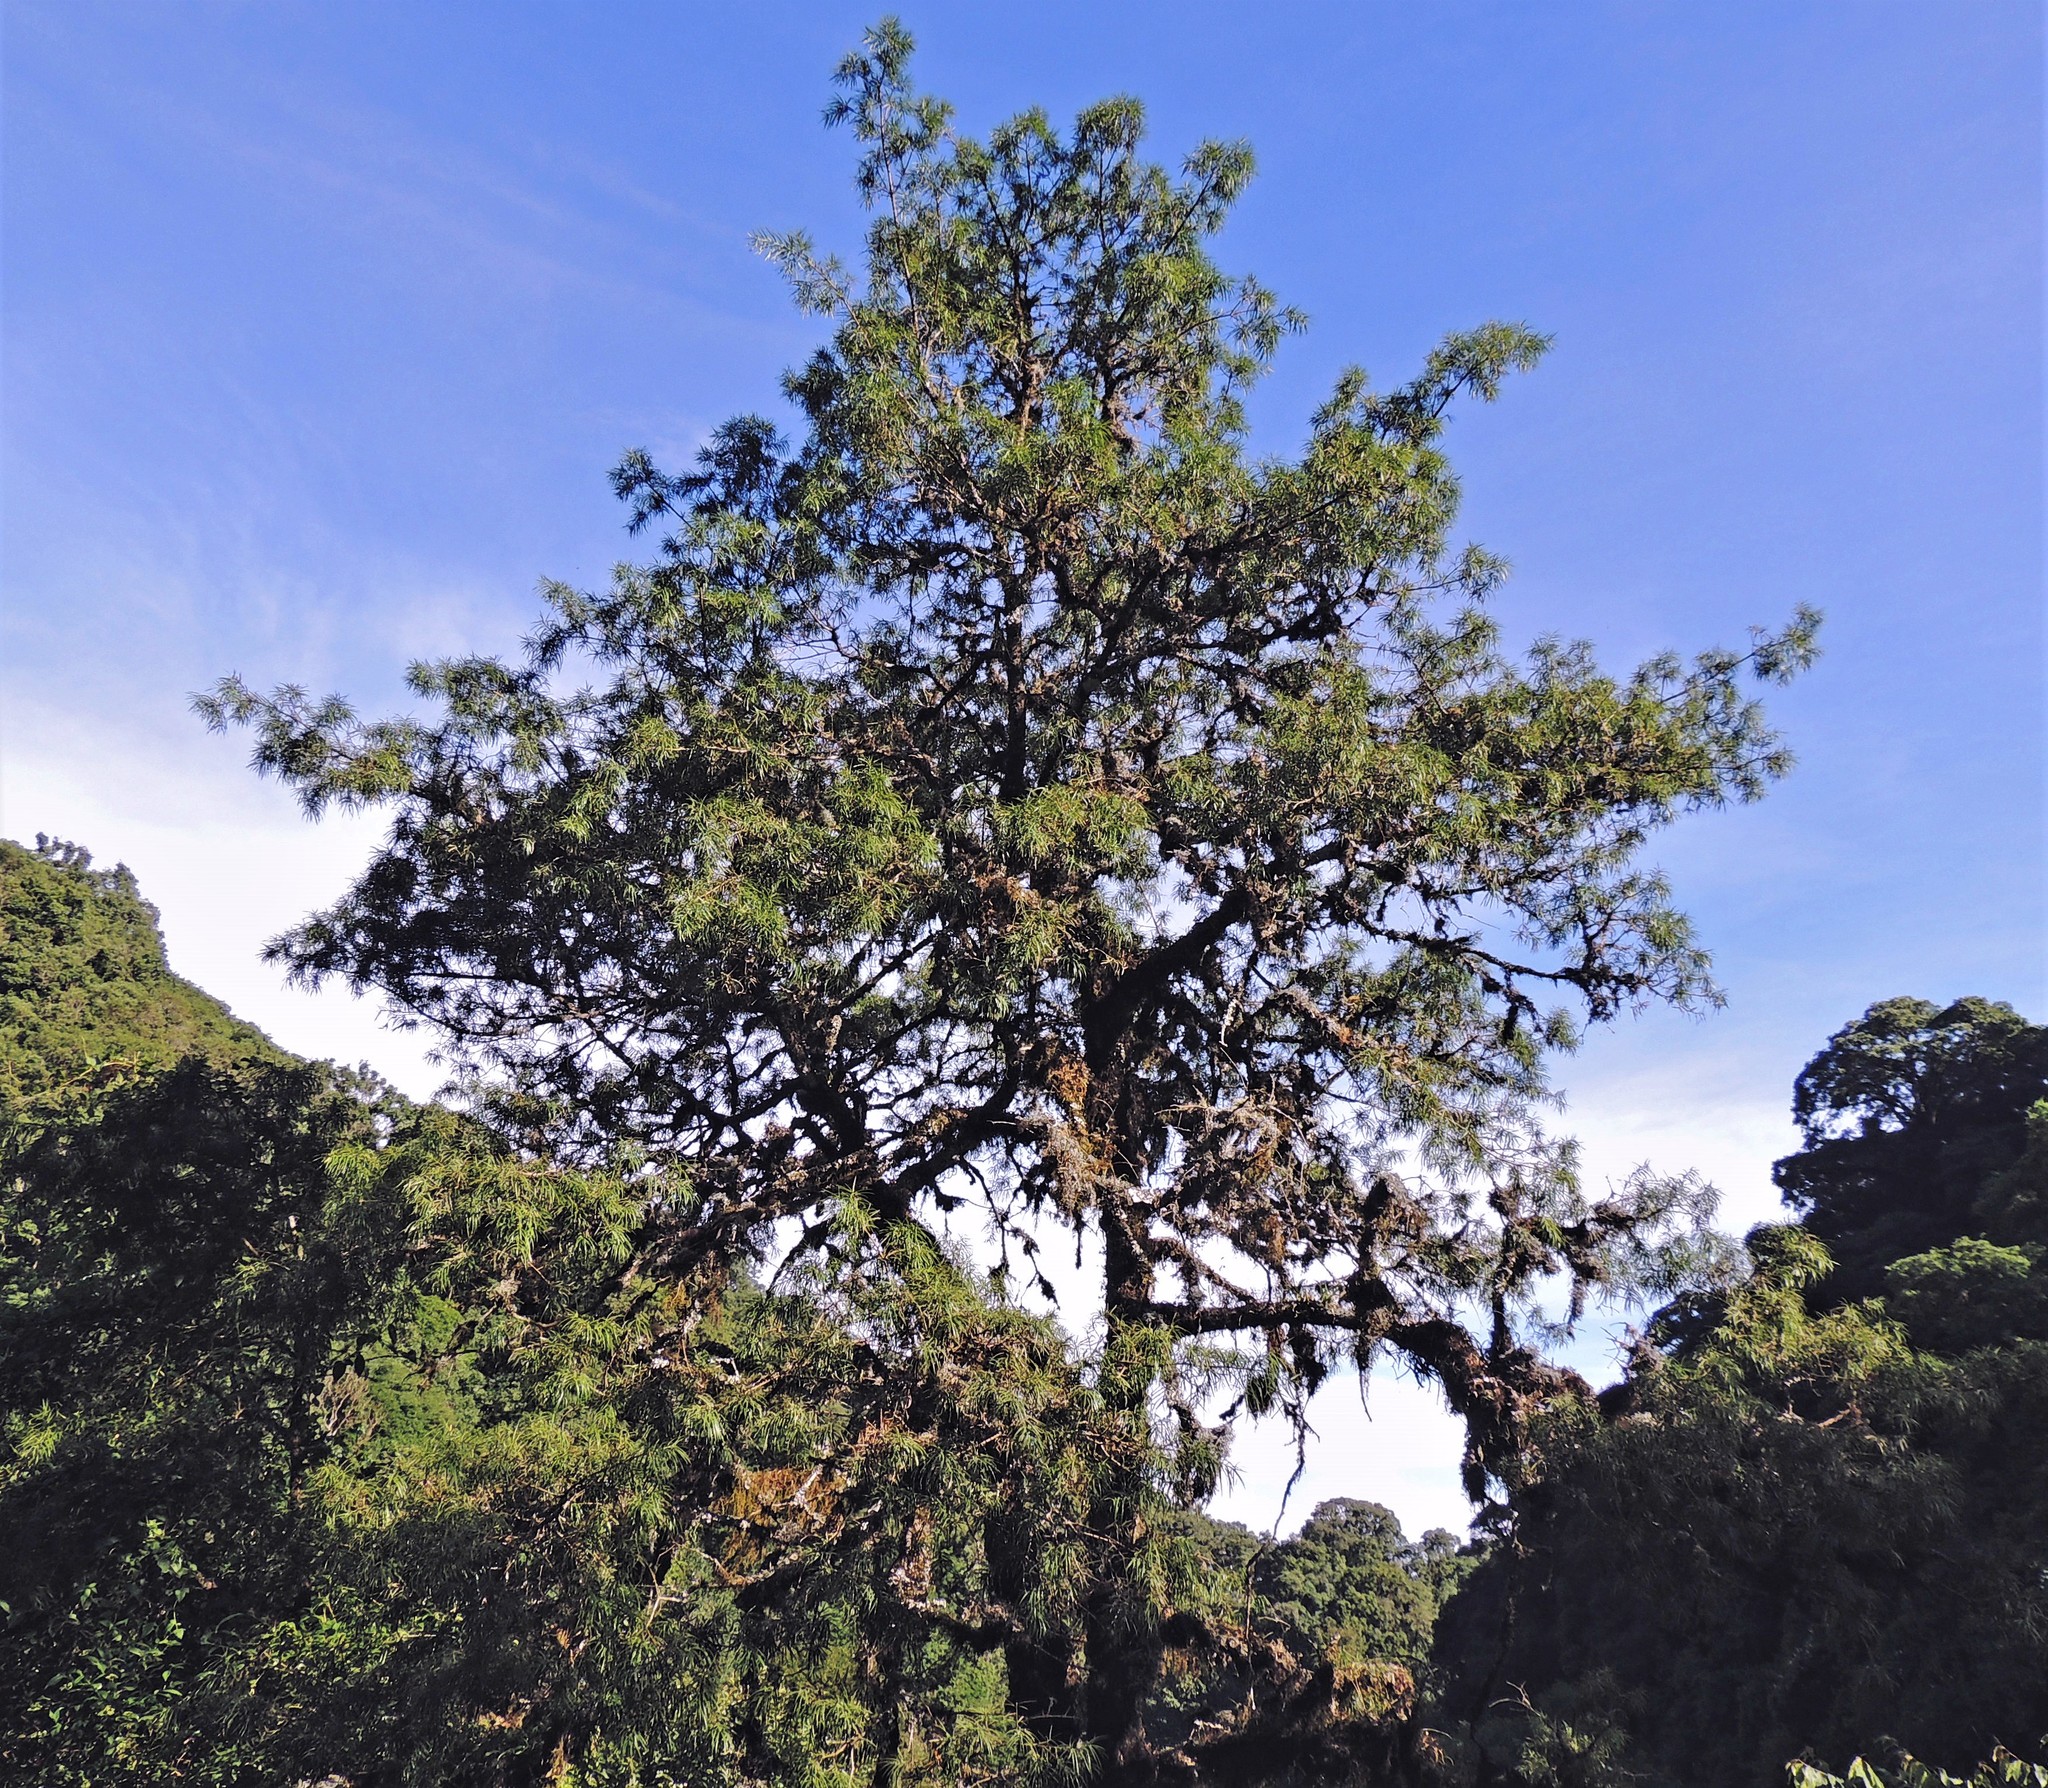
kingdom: Plantae
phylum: Tracheophyta
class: Pinopsida
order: Pinales
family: Podocarpaceae
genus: Podocarpus
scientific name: Podocarpus parlatorei
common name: Pino blanco
